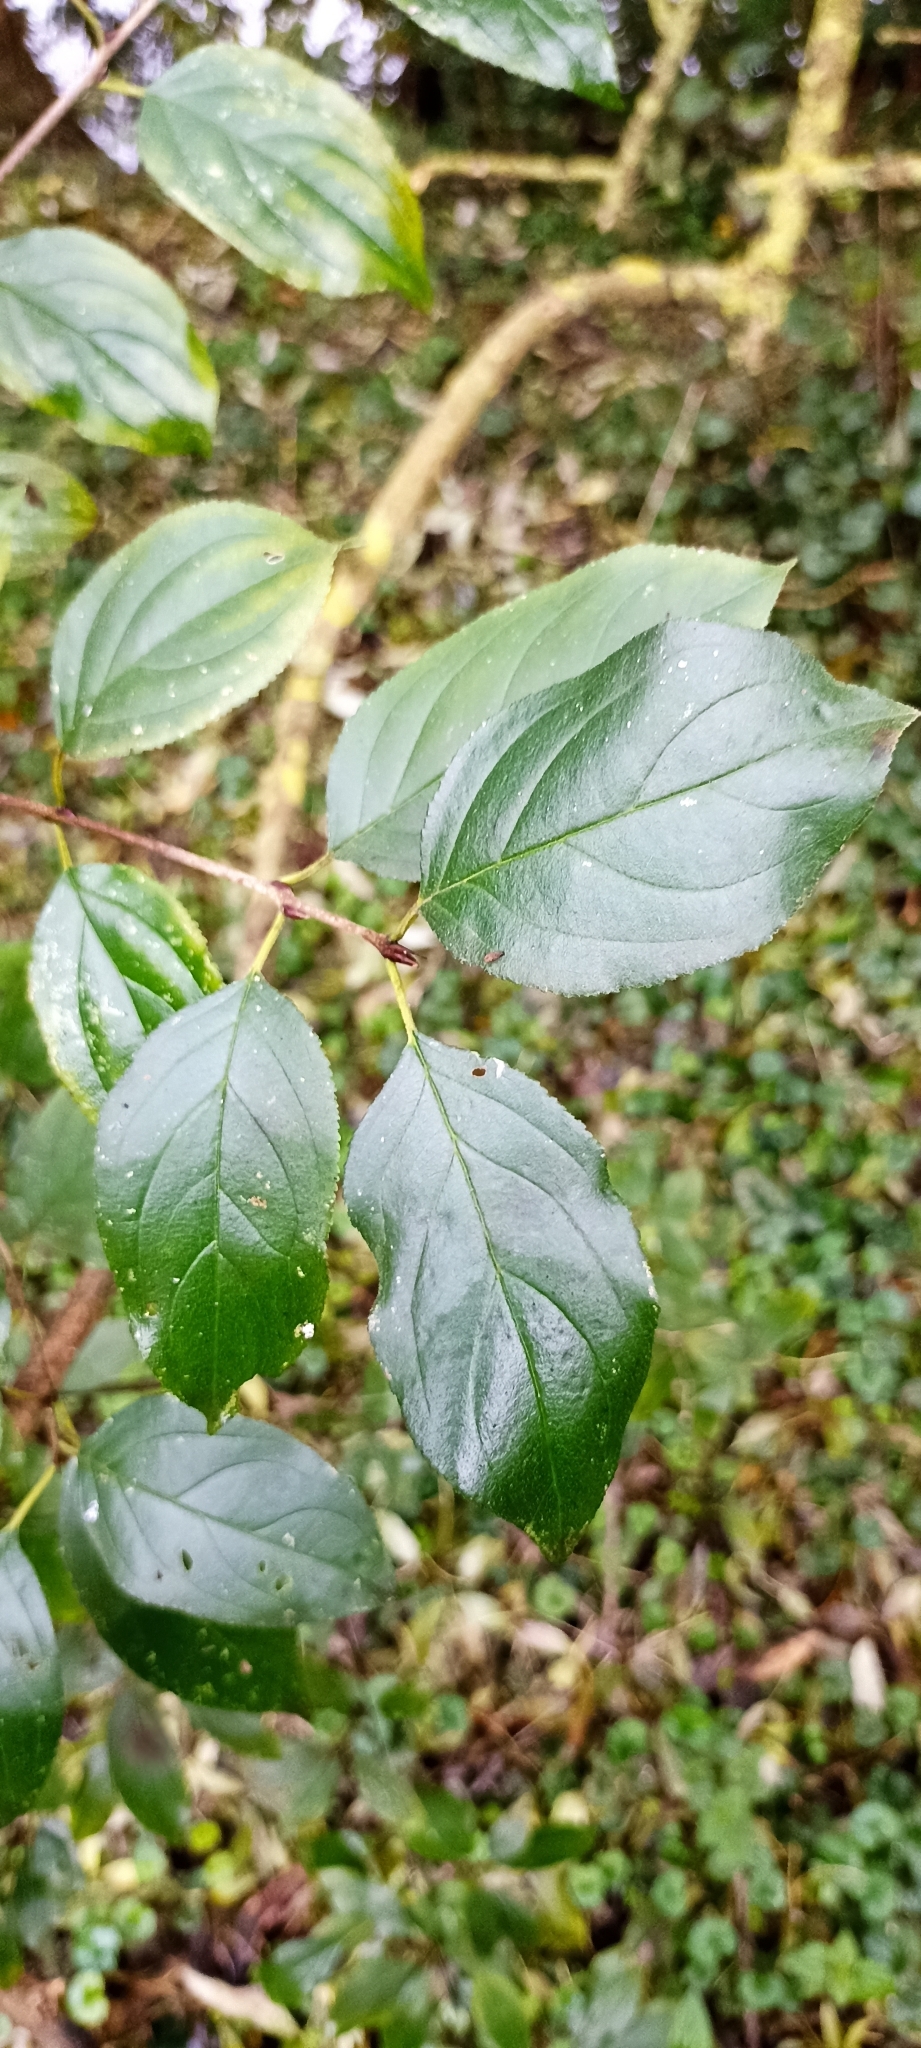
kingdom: Plantae
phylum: Tracheophyta
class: Magnoliopsida
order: Rosales
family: Rhamnaceae
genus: Rhamnus
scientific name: Rhamnus cathartica
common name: Common buckthorn
